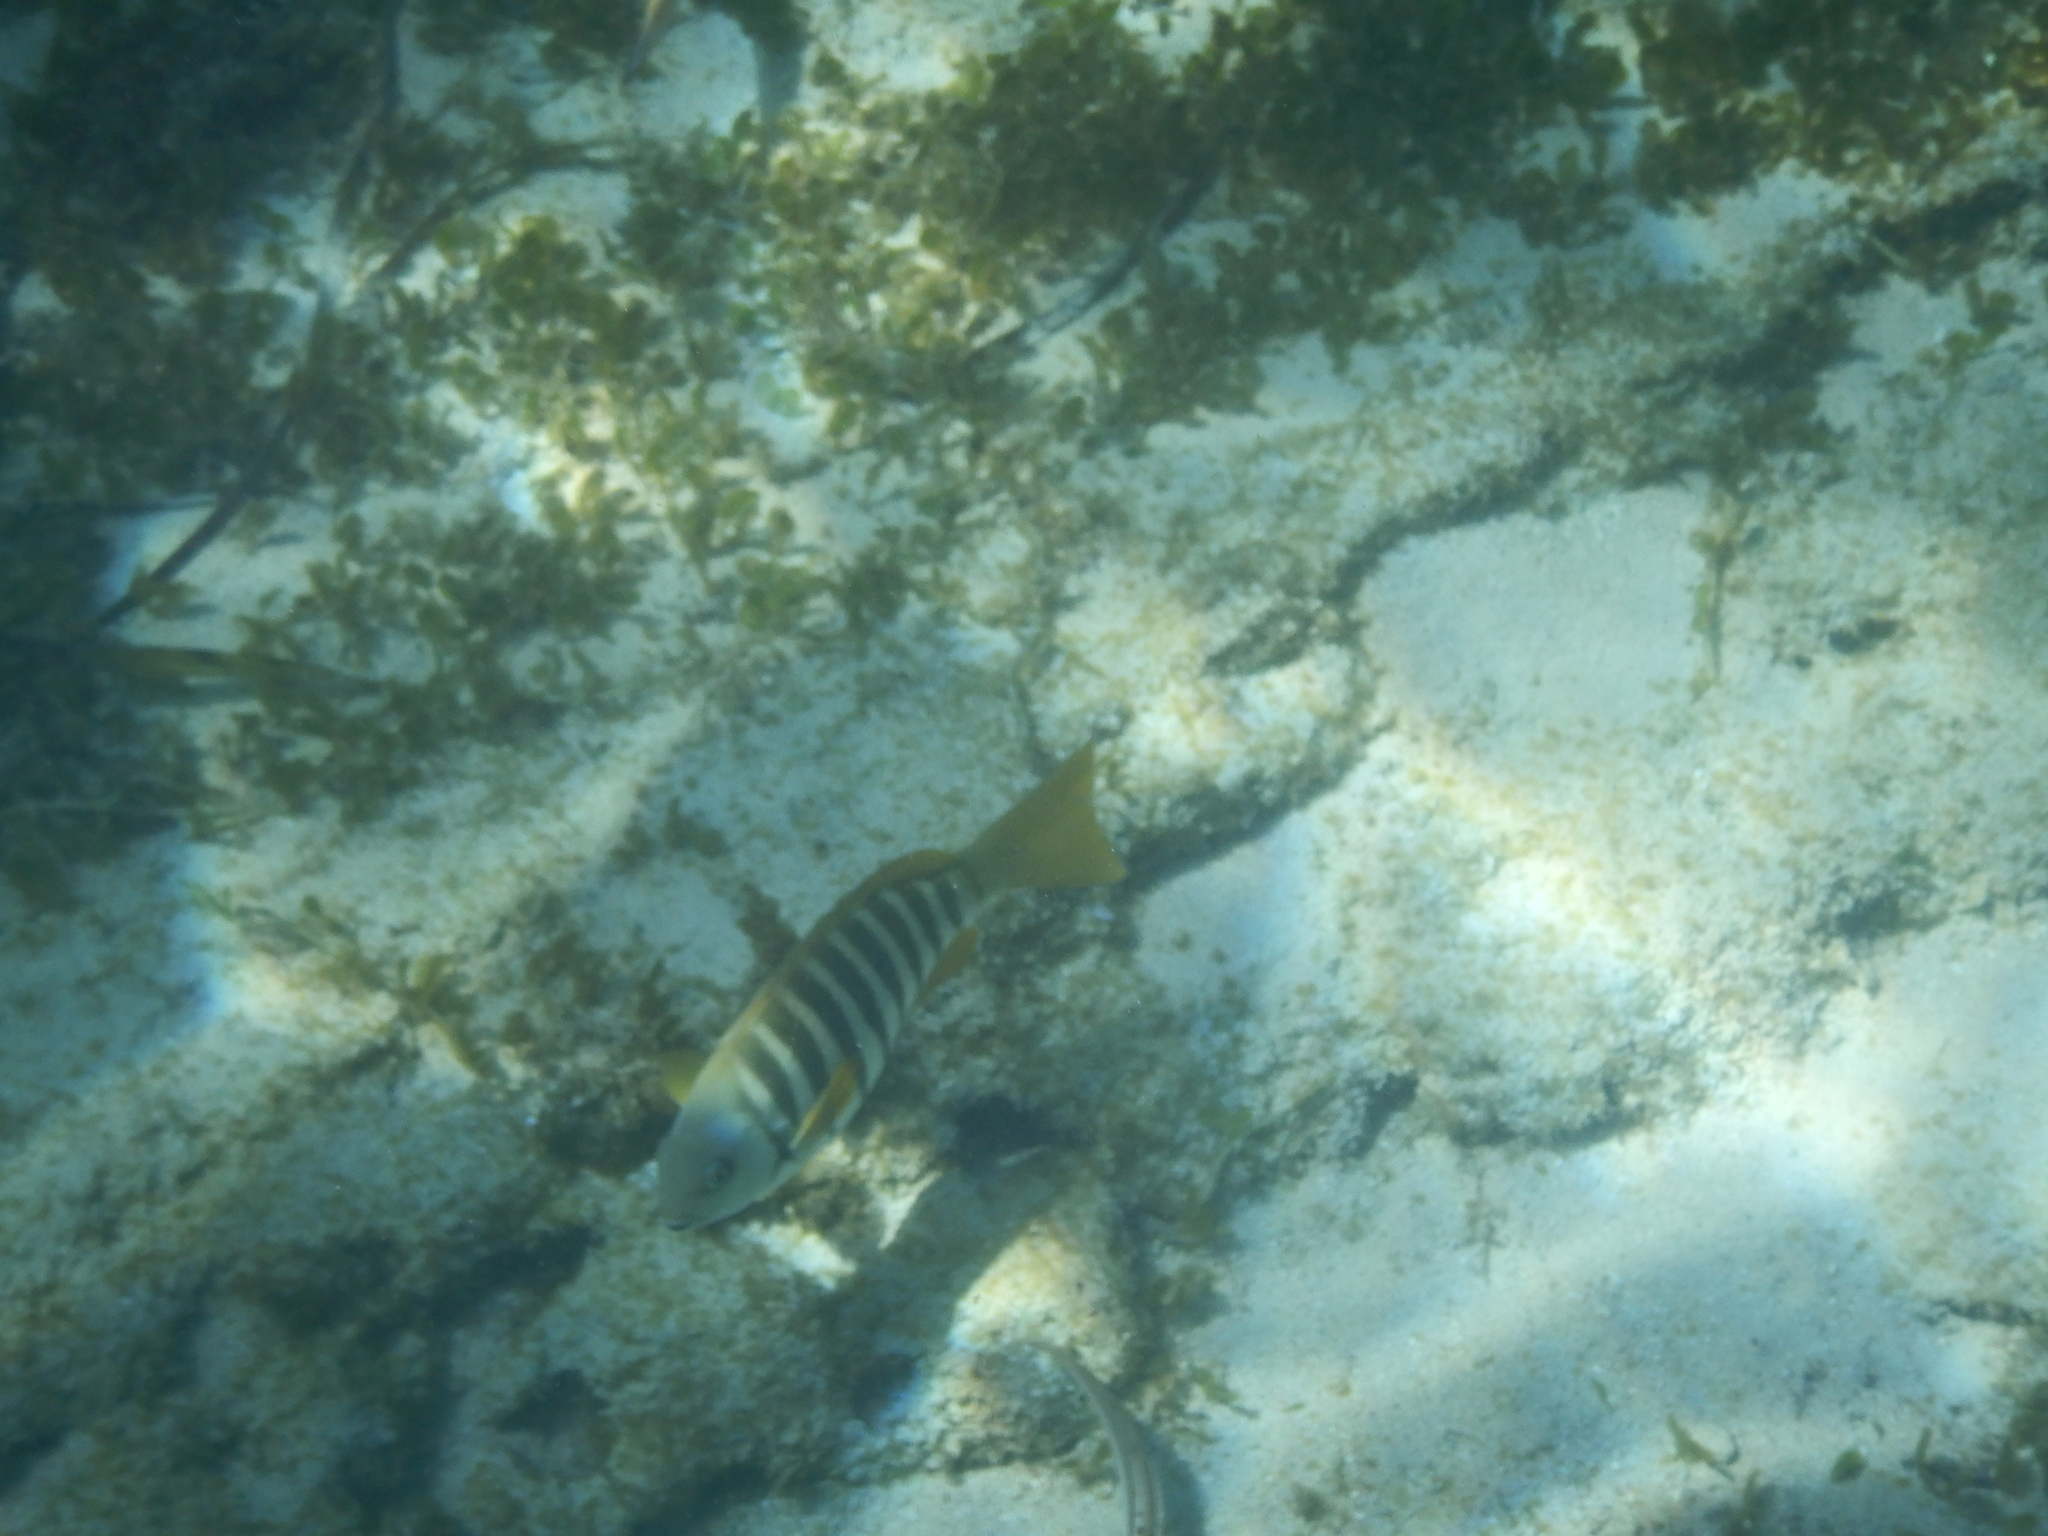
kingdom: Animalia
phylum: Chordata
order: Perciformes
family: Kyphosidae
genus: Girella
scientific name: Girella zebra
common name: Stripey bream
